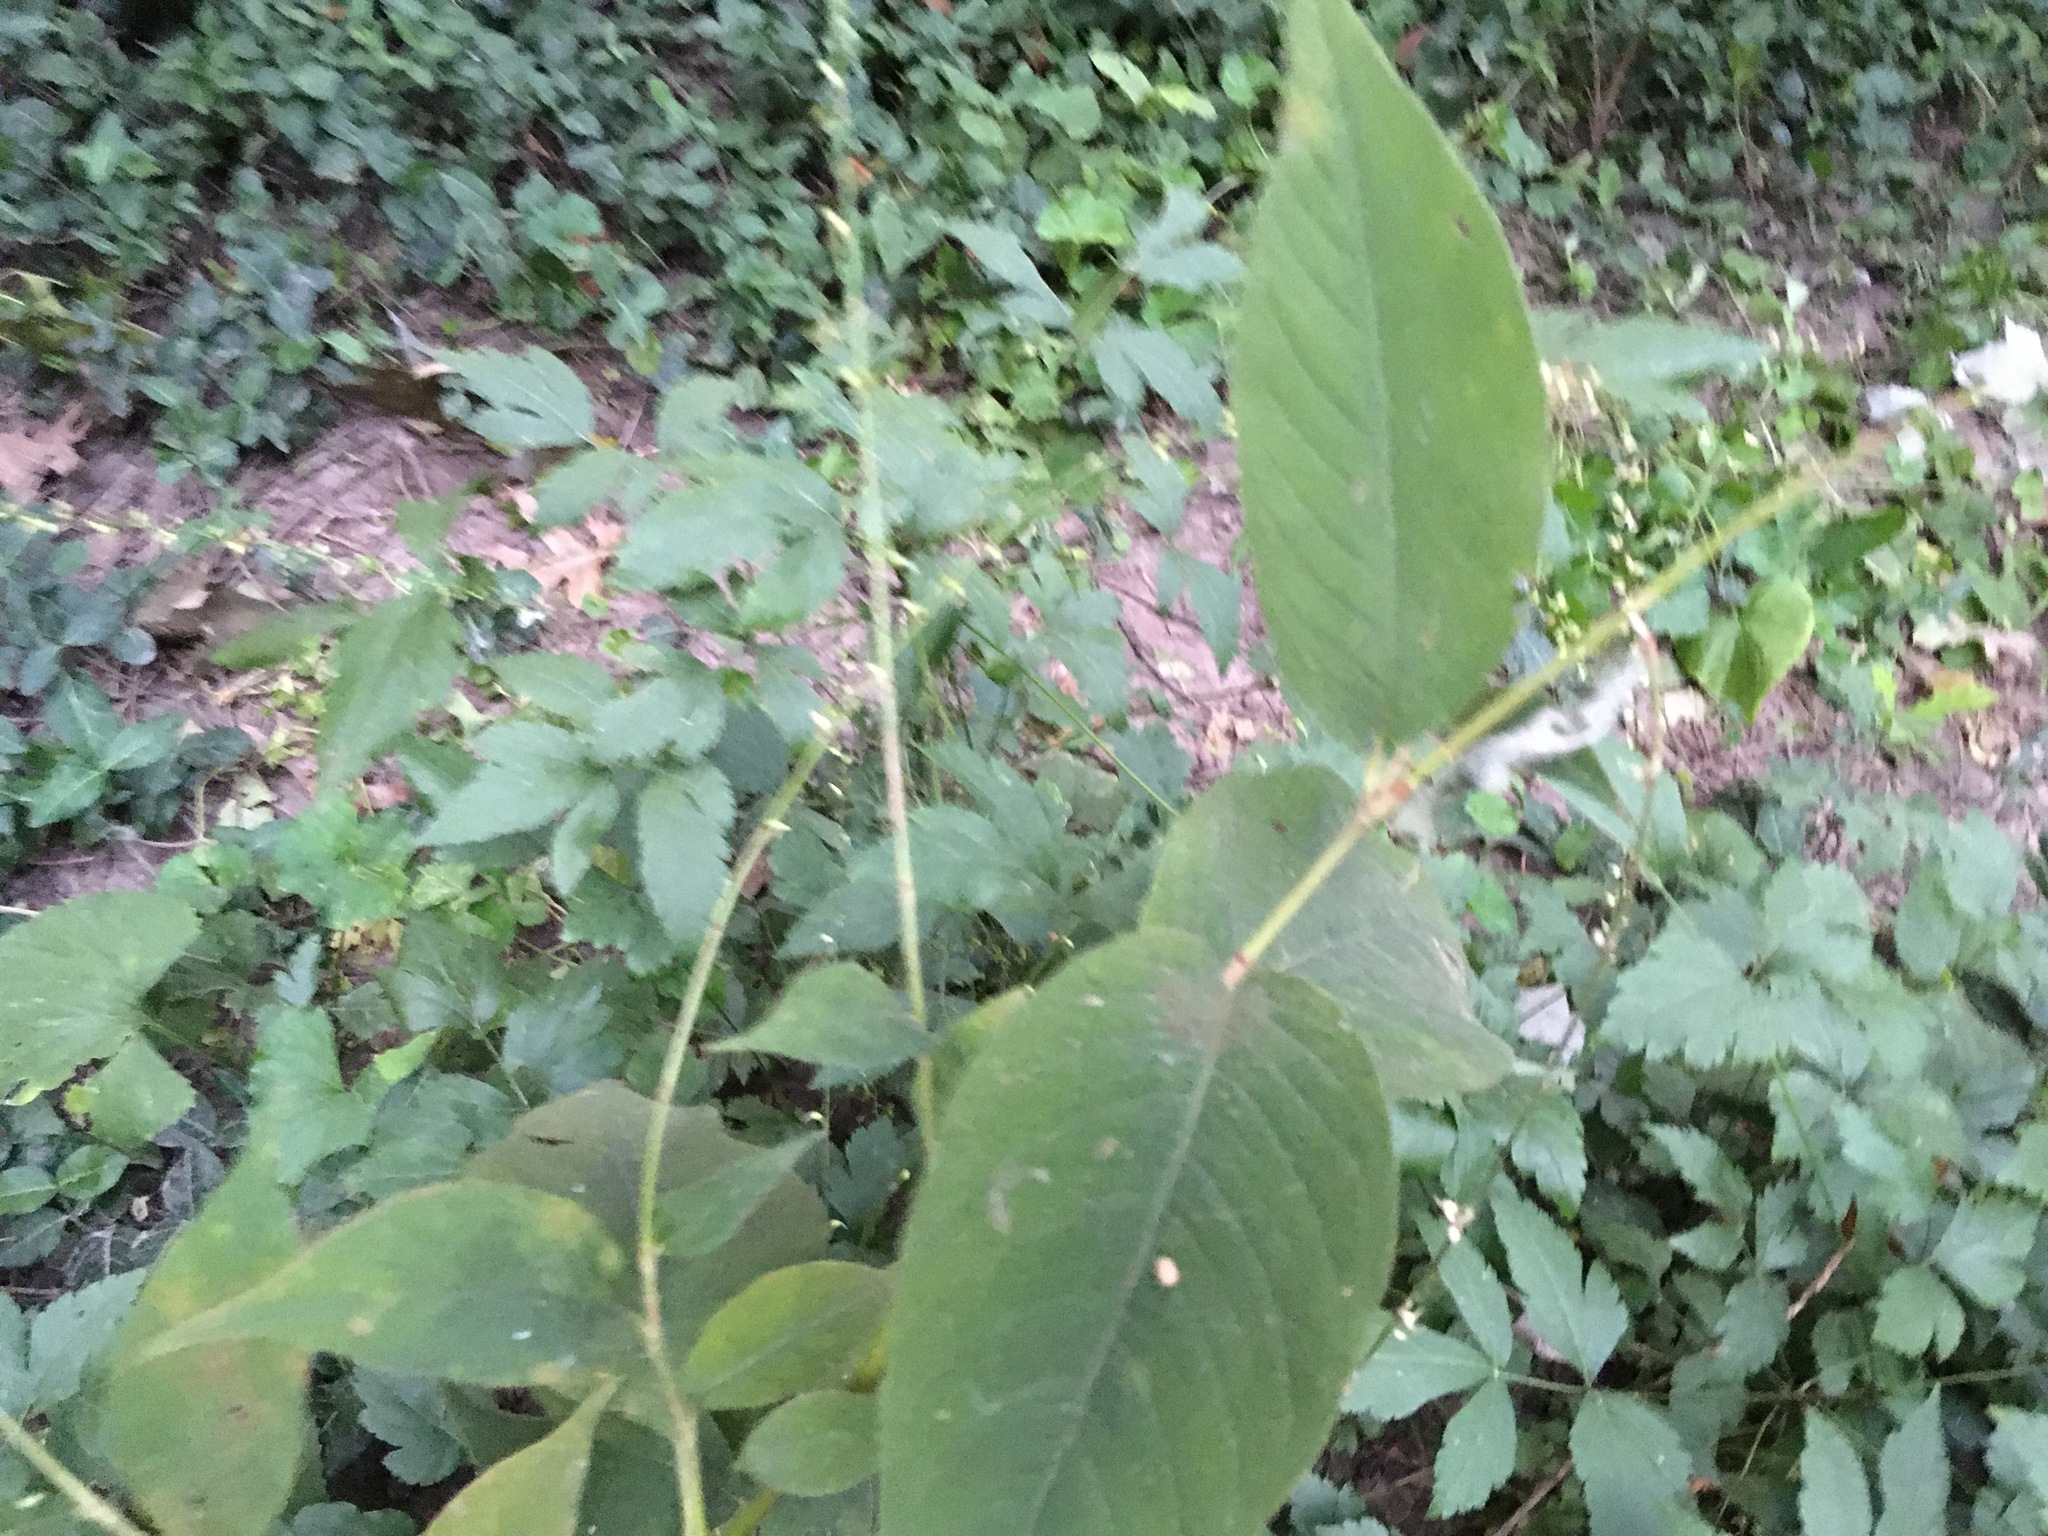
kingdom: Plantae
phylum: Tracheophyta
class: Magnoliopsida
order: Caryophyllales
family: Polygonaceae
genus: Persicaria
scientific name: Persicaria virginiana
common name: Jumpseed
